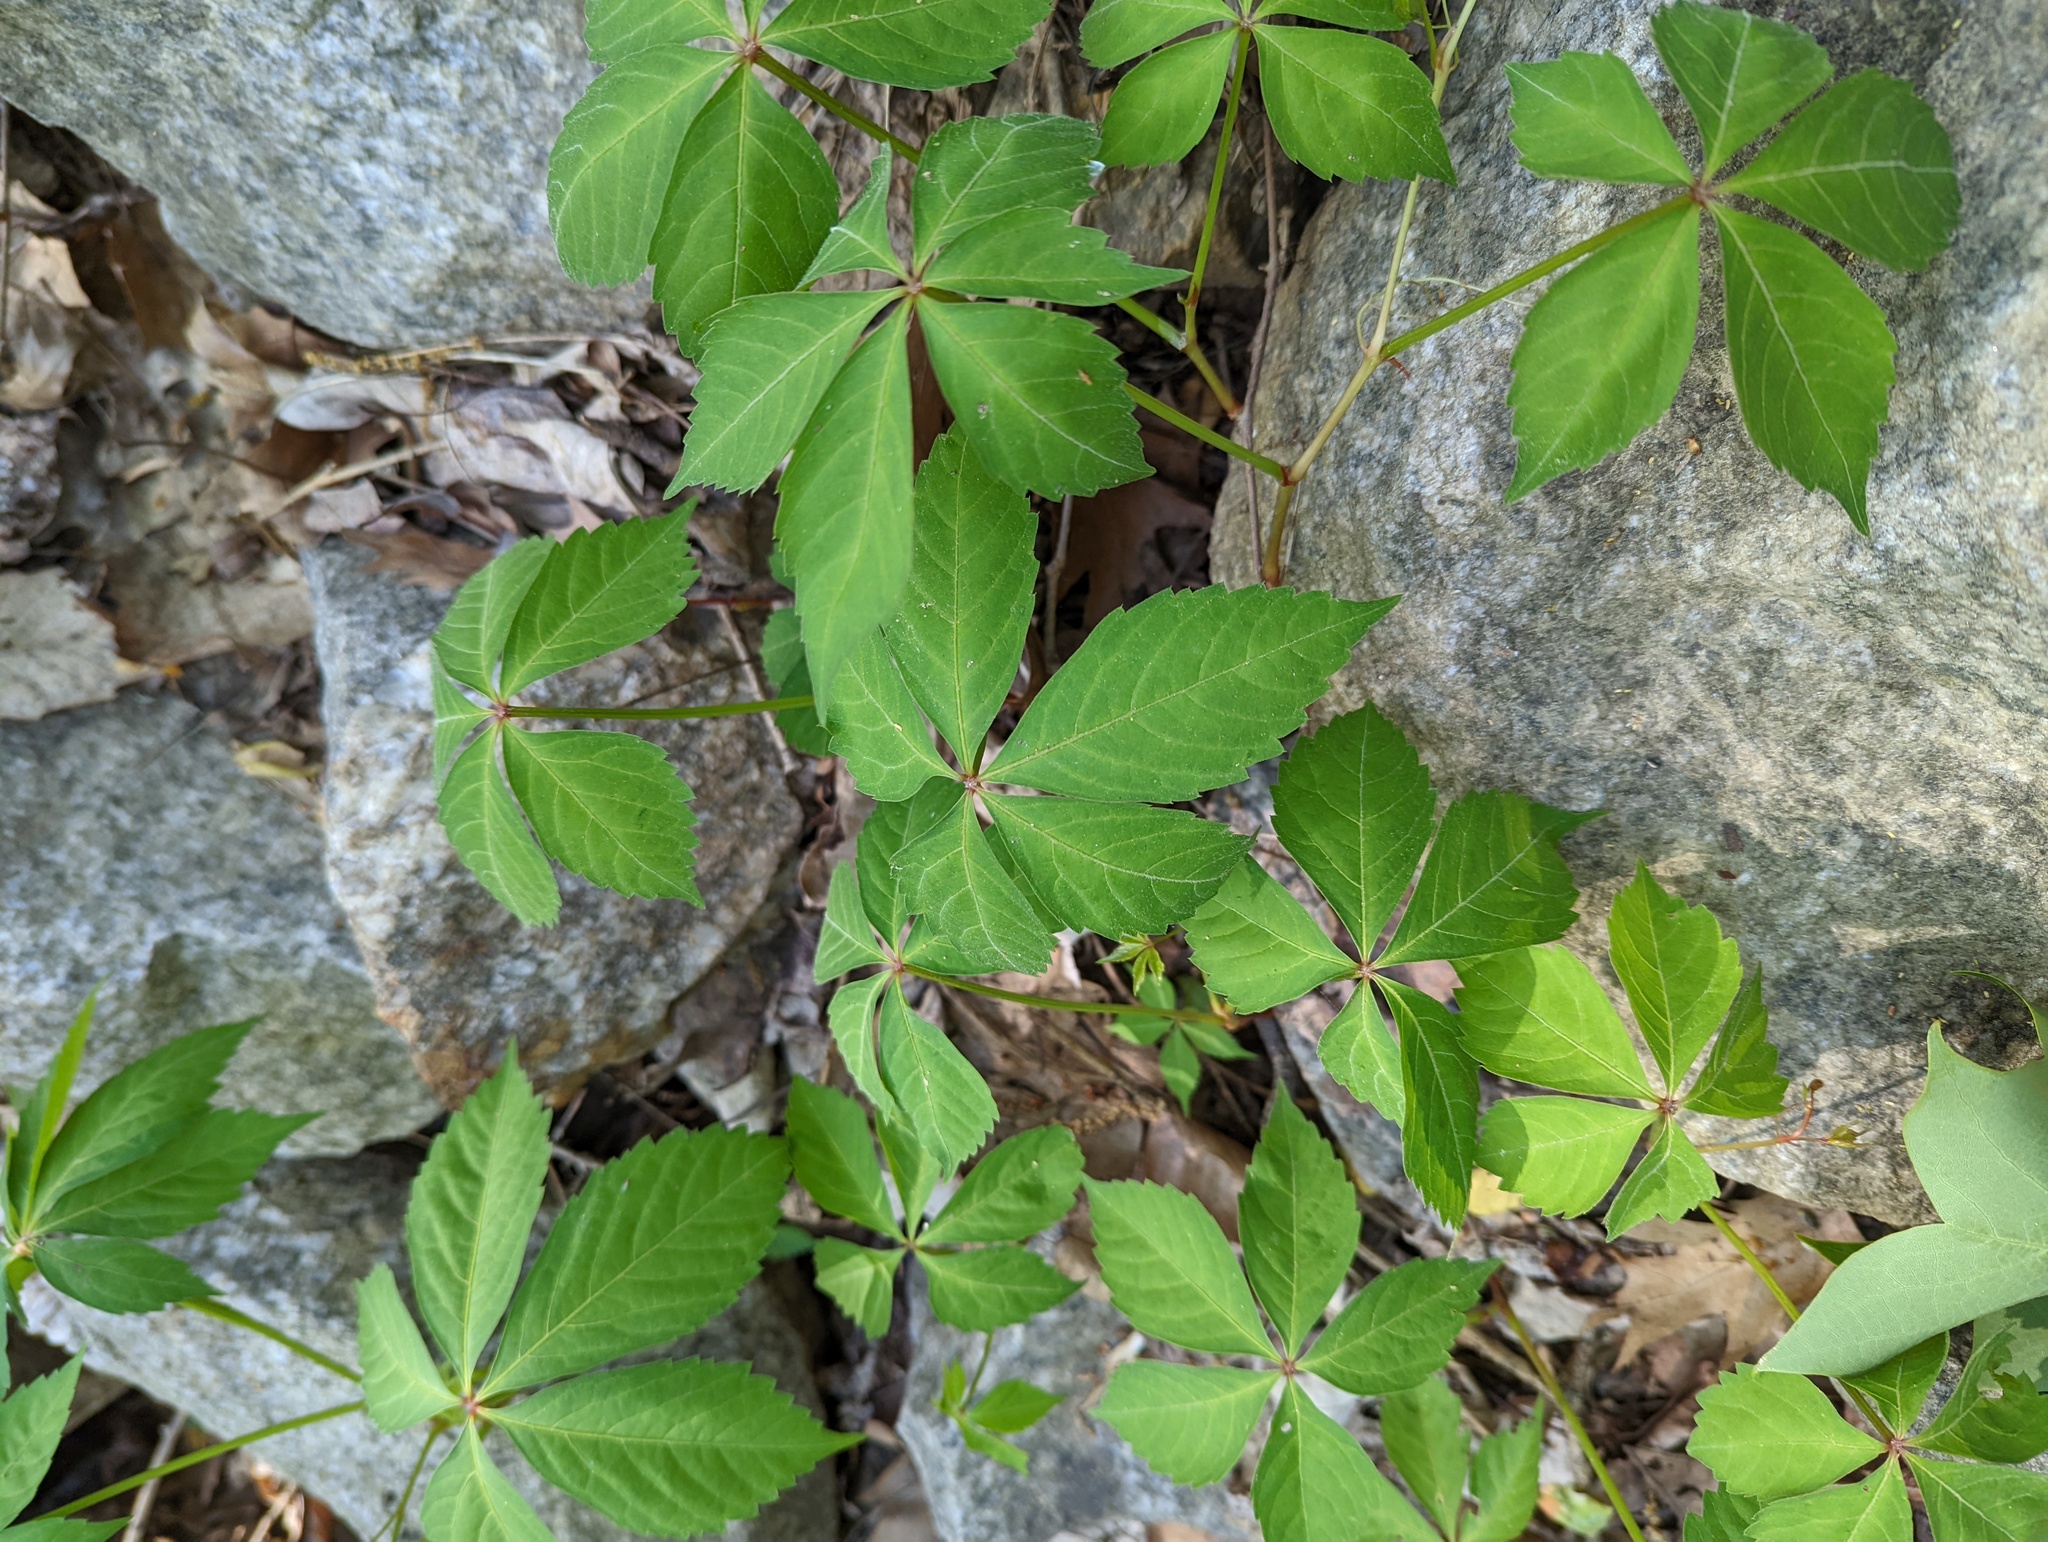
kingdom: Plantae
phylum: Tracheophyta
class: Magnoliopsida
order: Vitales
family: Vitaceae
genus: Parthenocissus
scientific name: Parthenocissus quinquefolia
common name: Virginia-creeper
